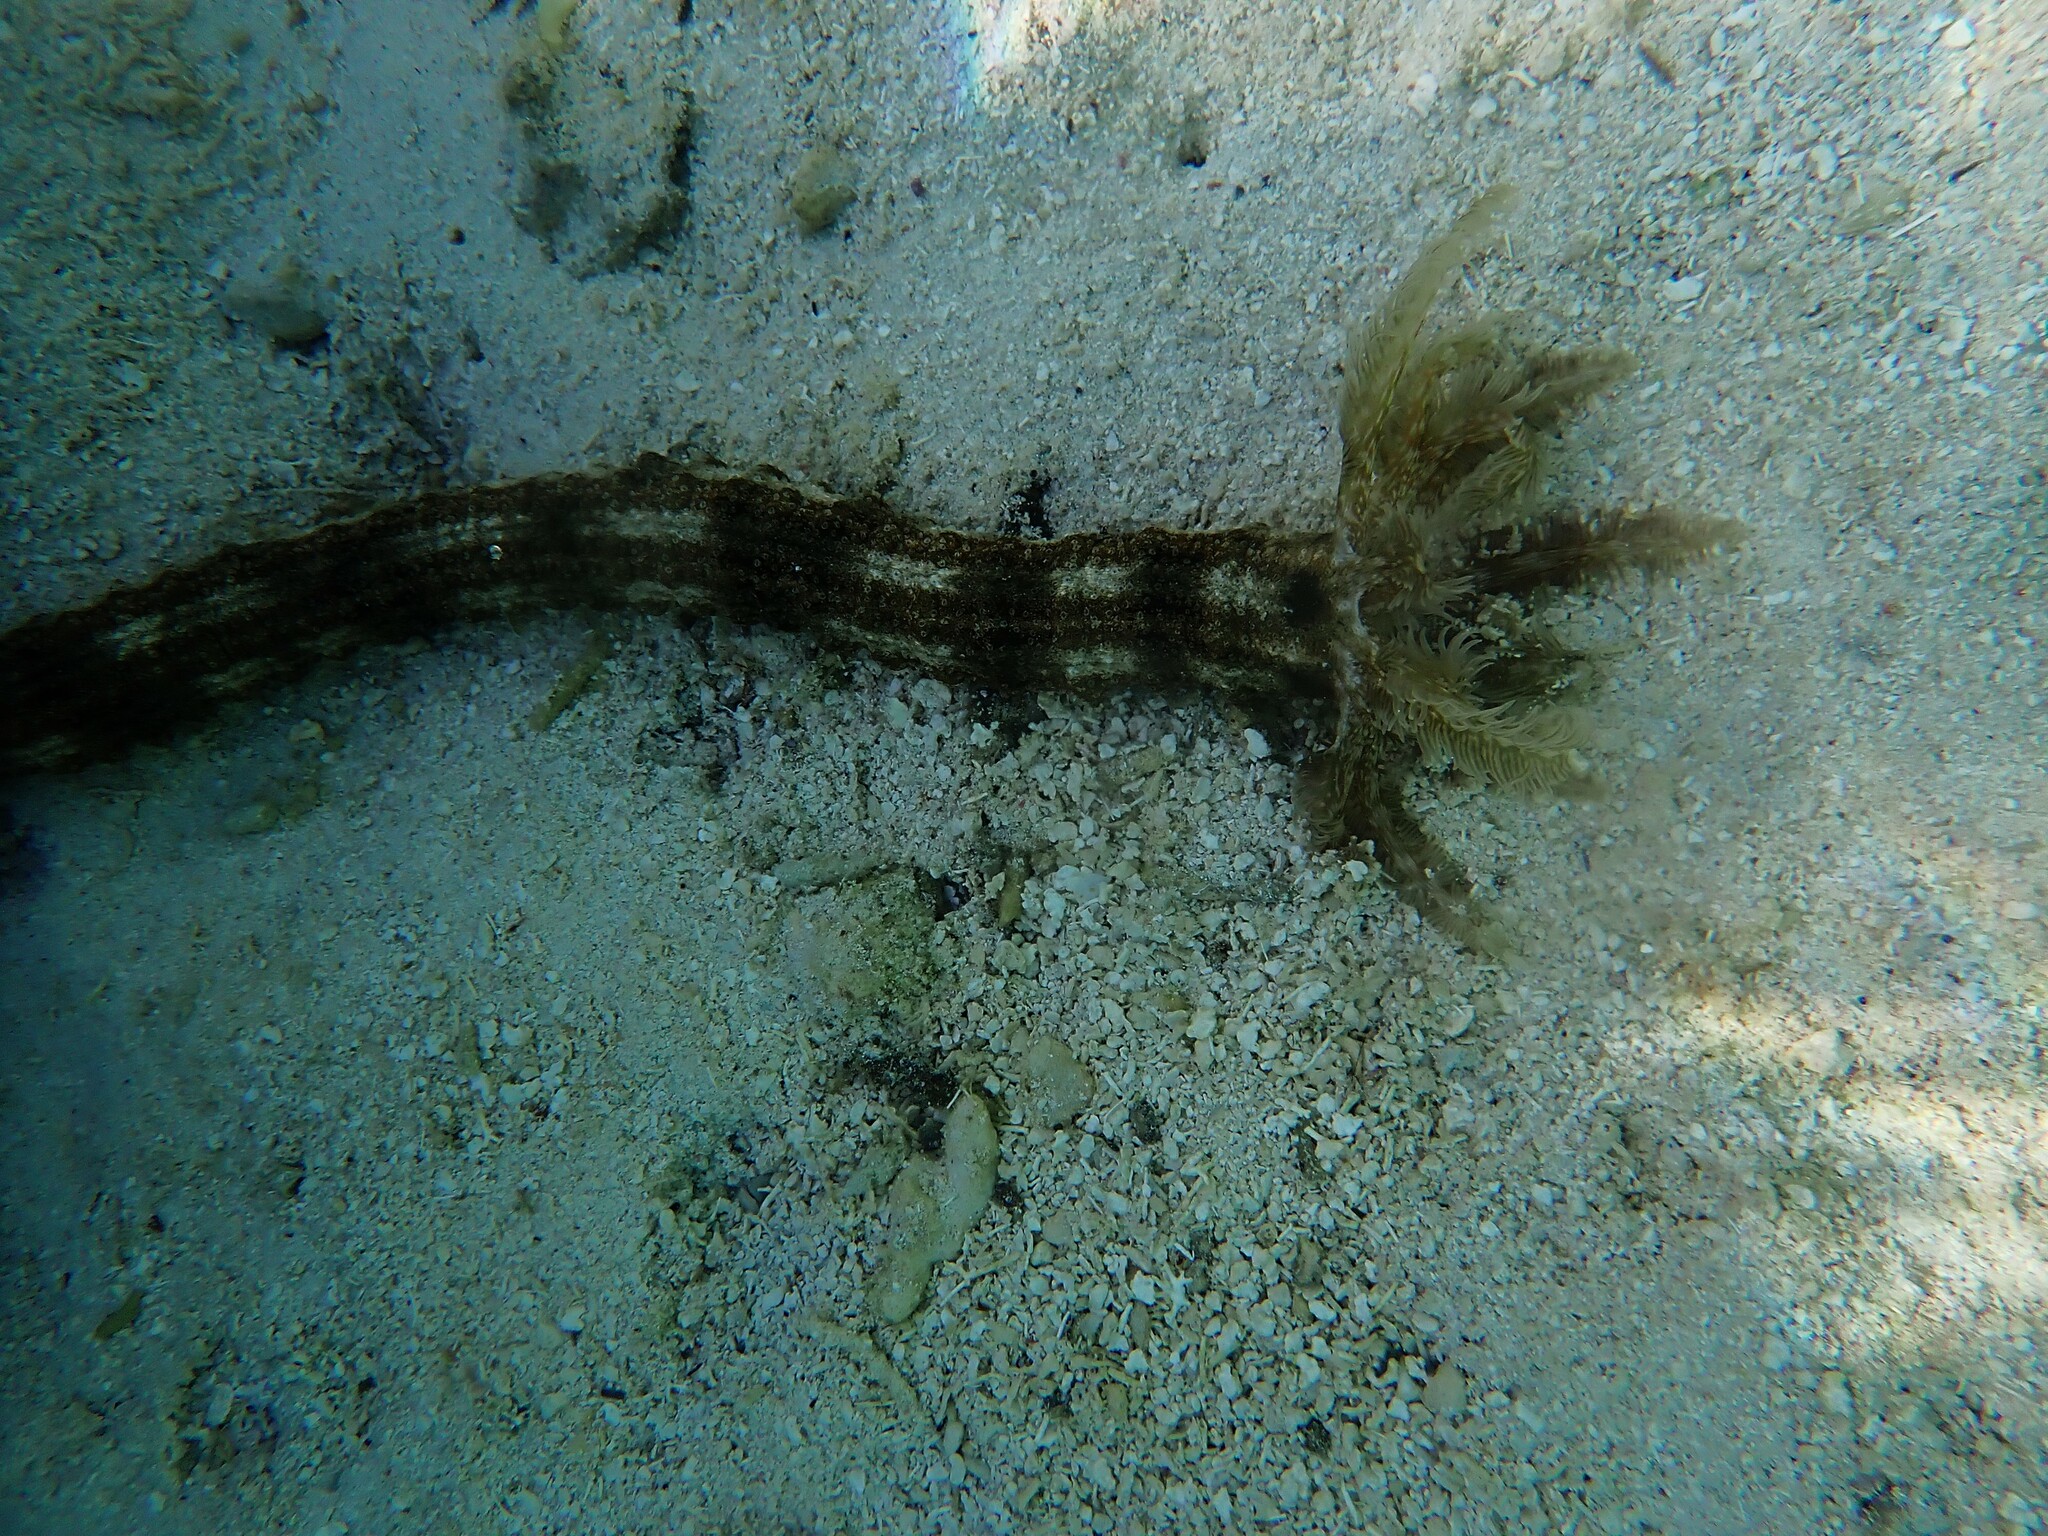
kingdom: Animalia
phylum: Echinodermata
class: Holothuroidea
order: Apodida
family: Synaptidae
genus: Synapta
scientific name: Synapta maculata
